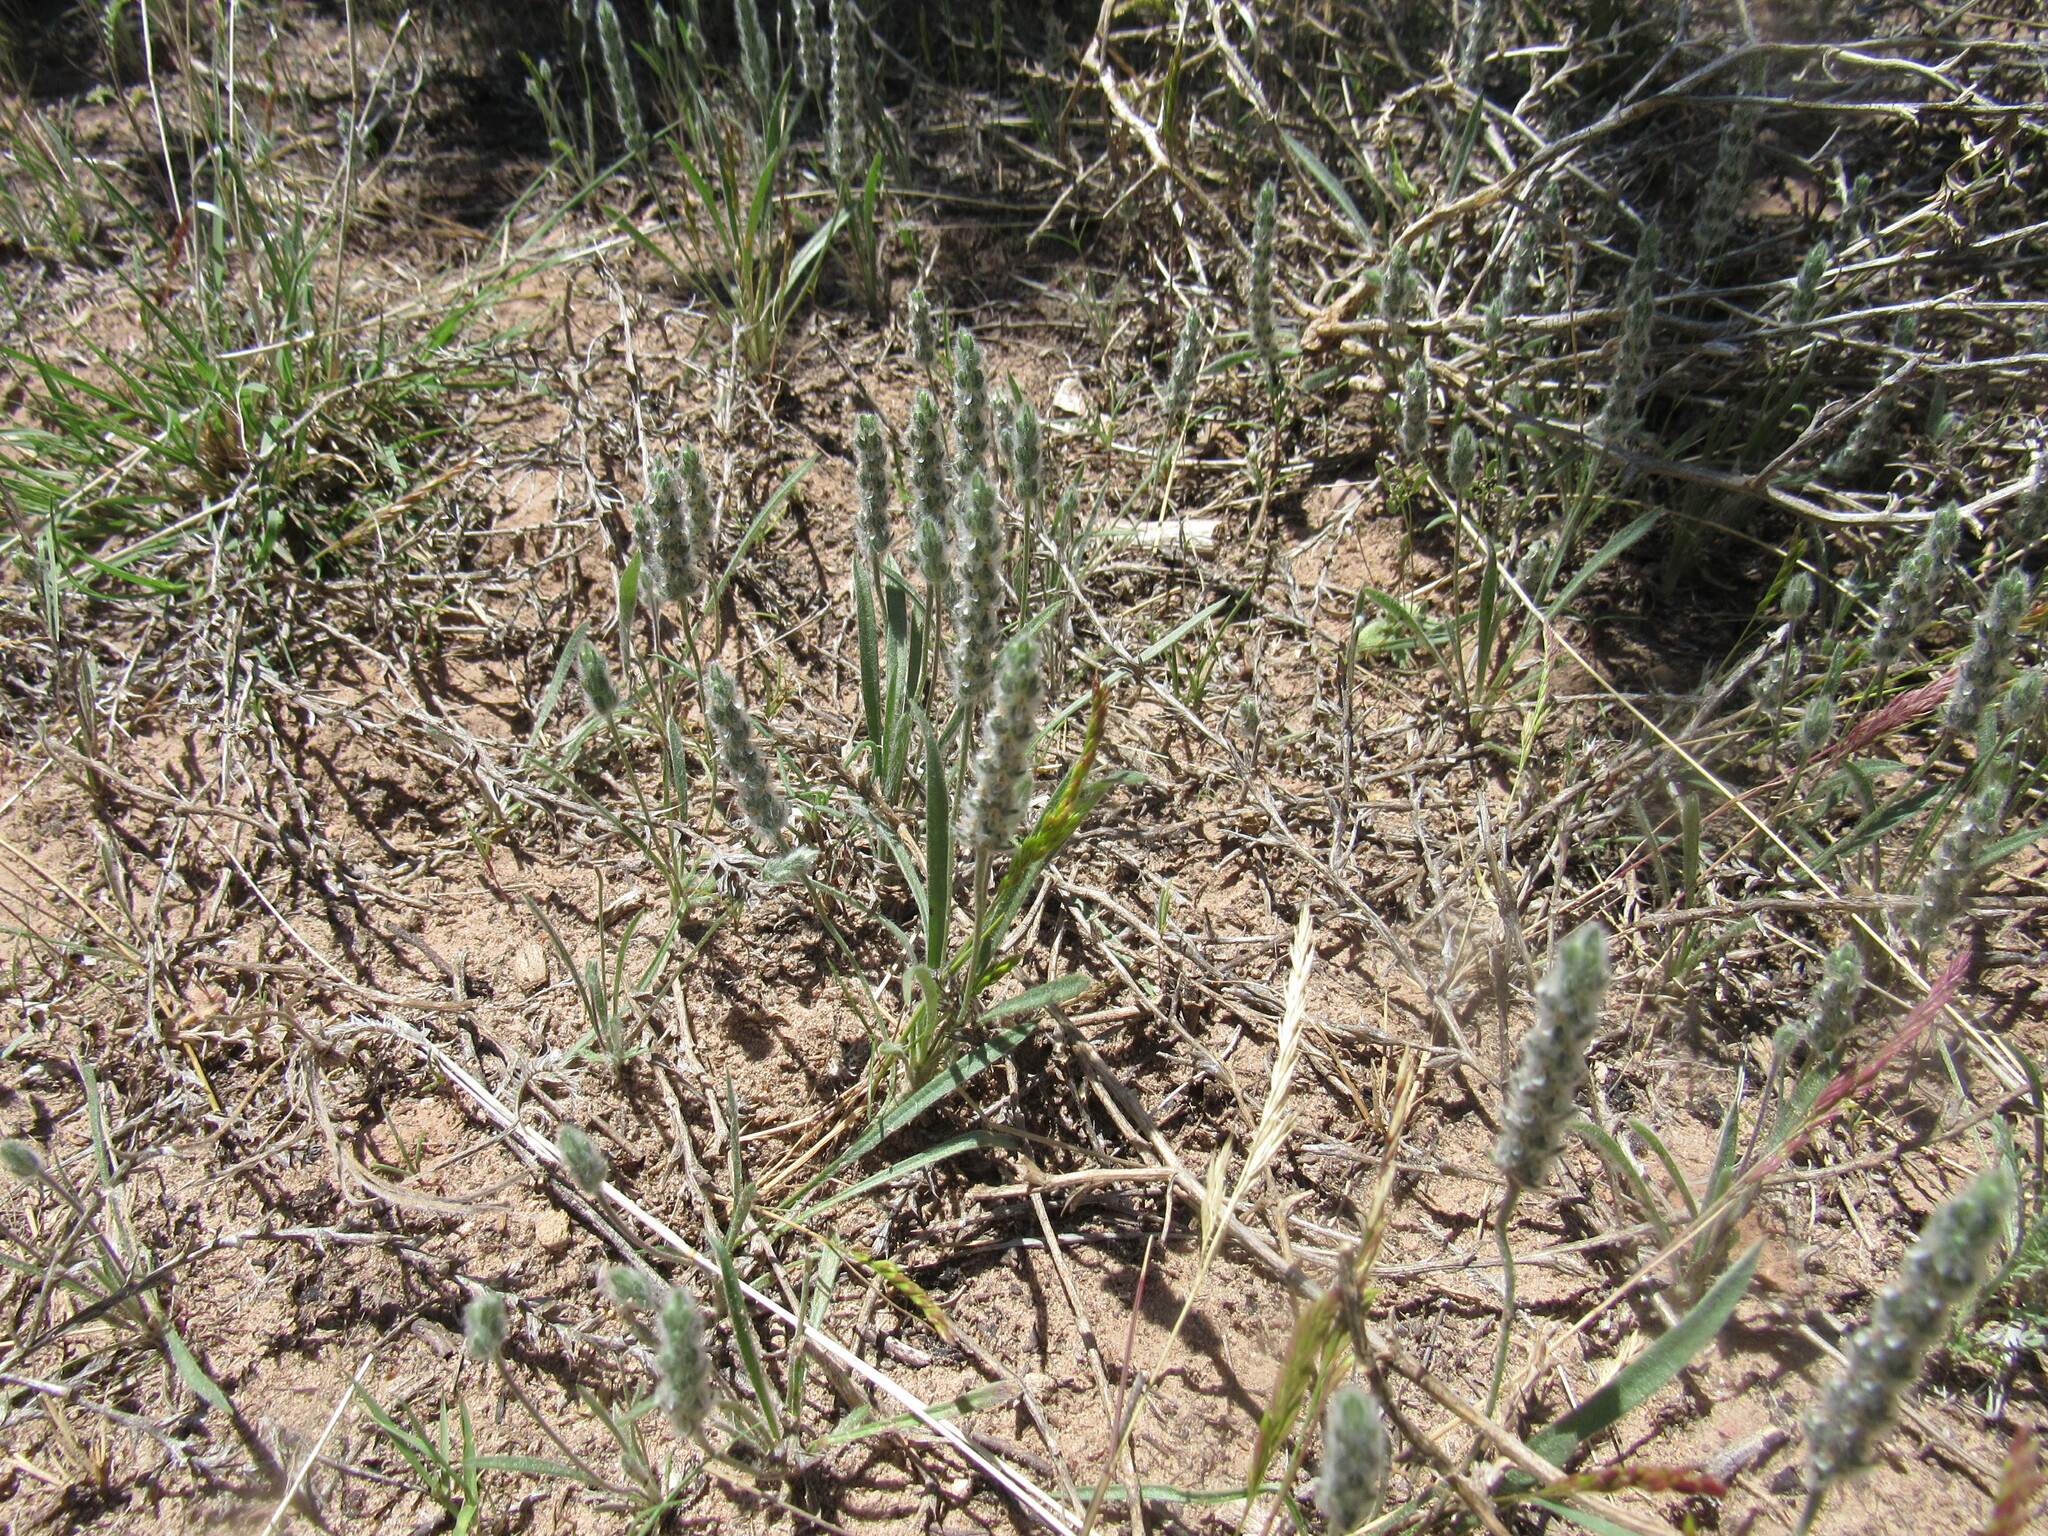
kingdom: Plantae
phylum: Tracheophyta
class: Magnoliopsida
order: Lamiales
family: Plantaginaceae
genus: Plantago
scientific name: Plantago patagonica
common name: Patagonia indian-wheat
